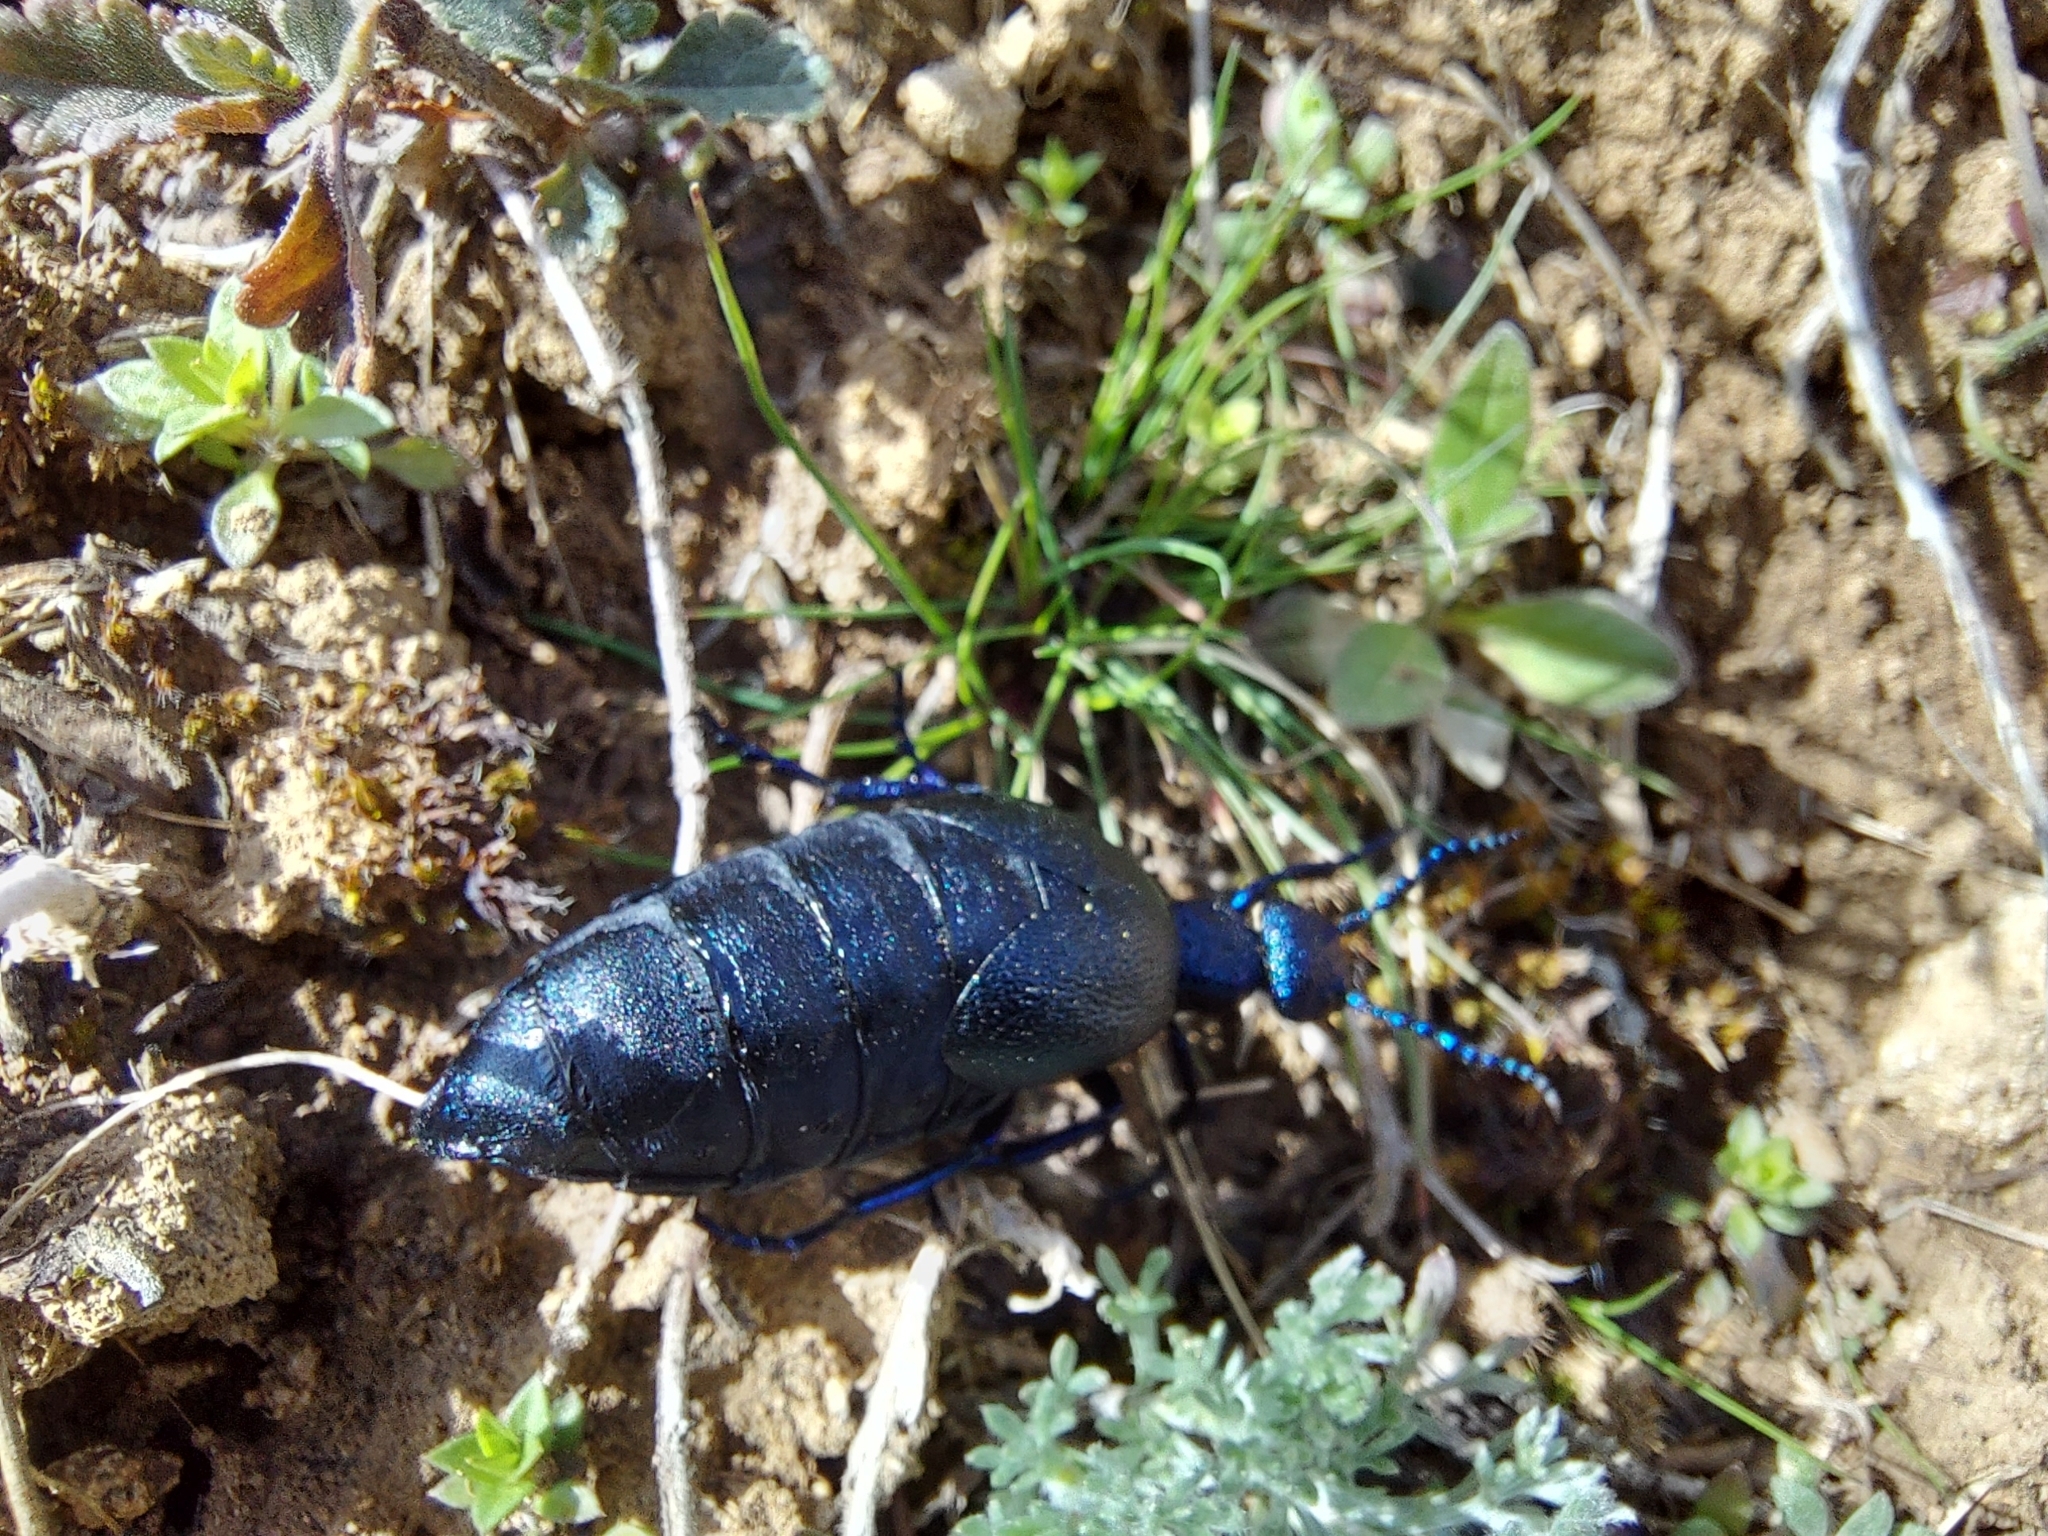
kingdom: Animalia
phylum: Arthropoda
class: Insecta
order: Coleoptera
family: Meloidae
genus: Meloe
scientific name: Meloe proscarabaeus
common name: Black oil-beetle
